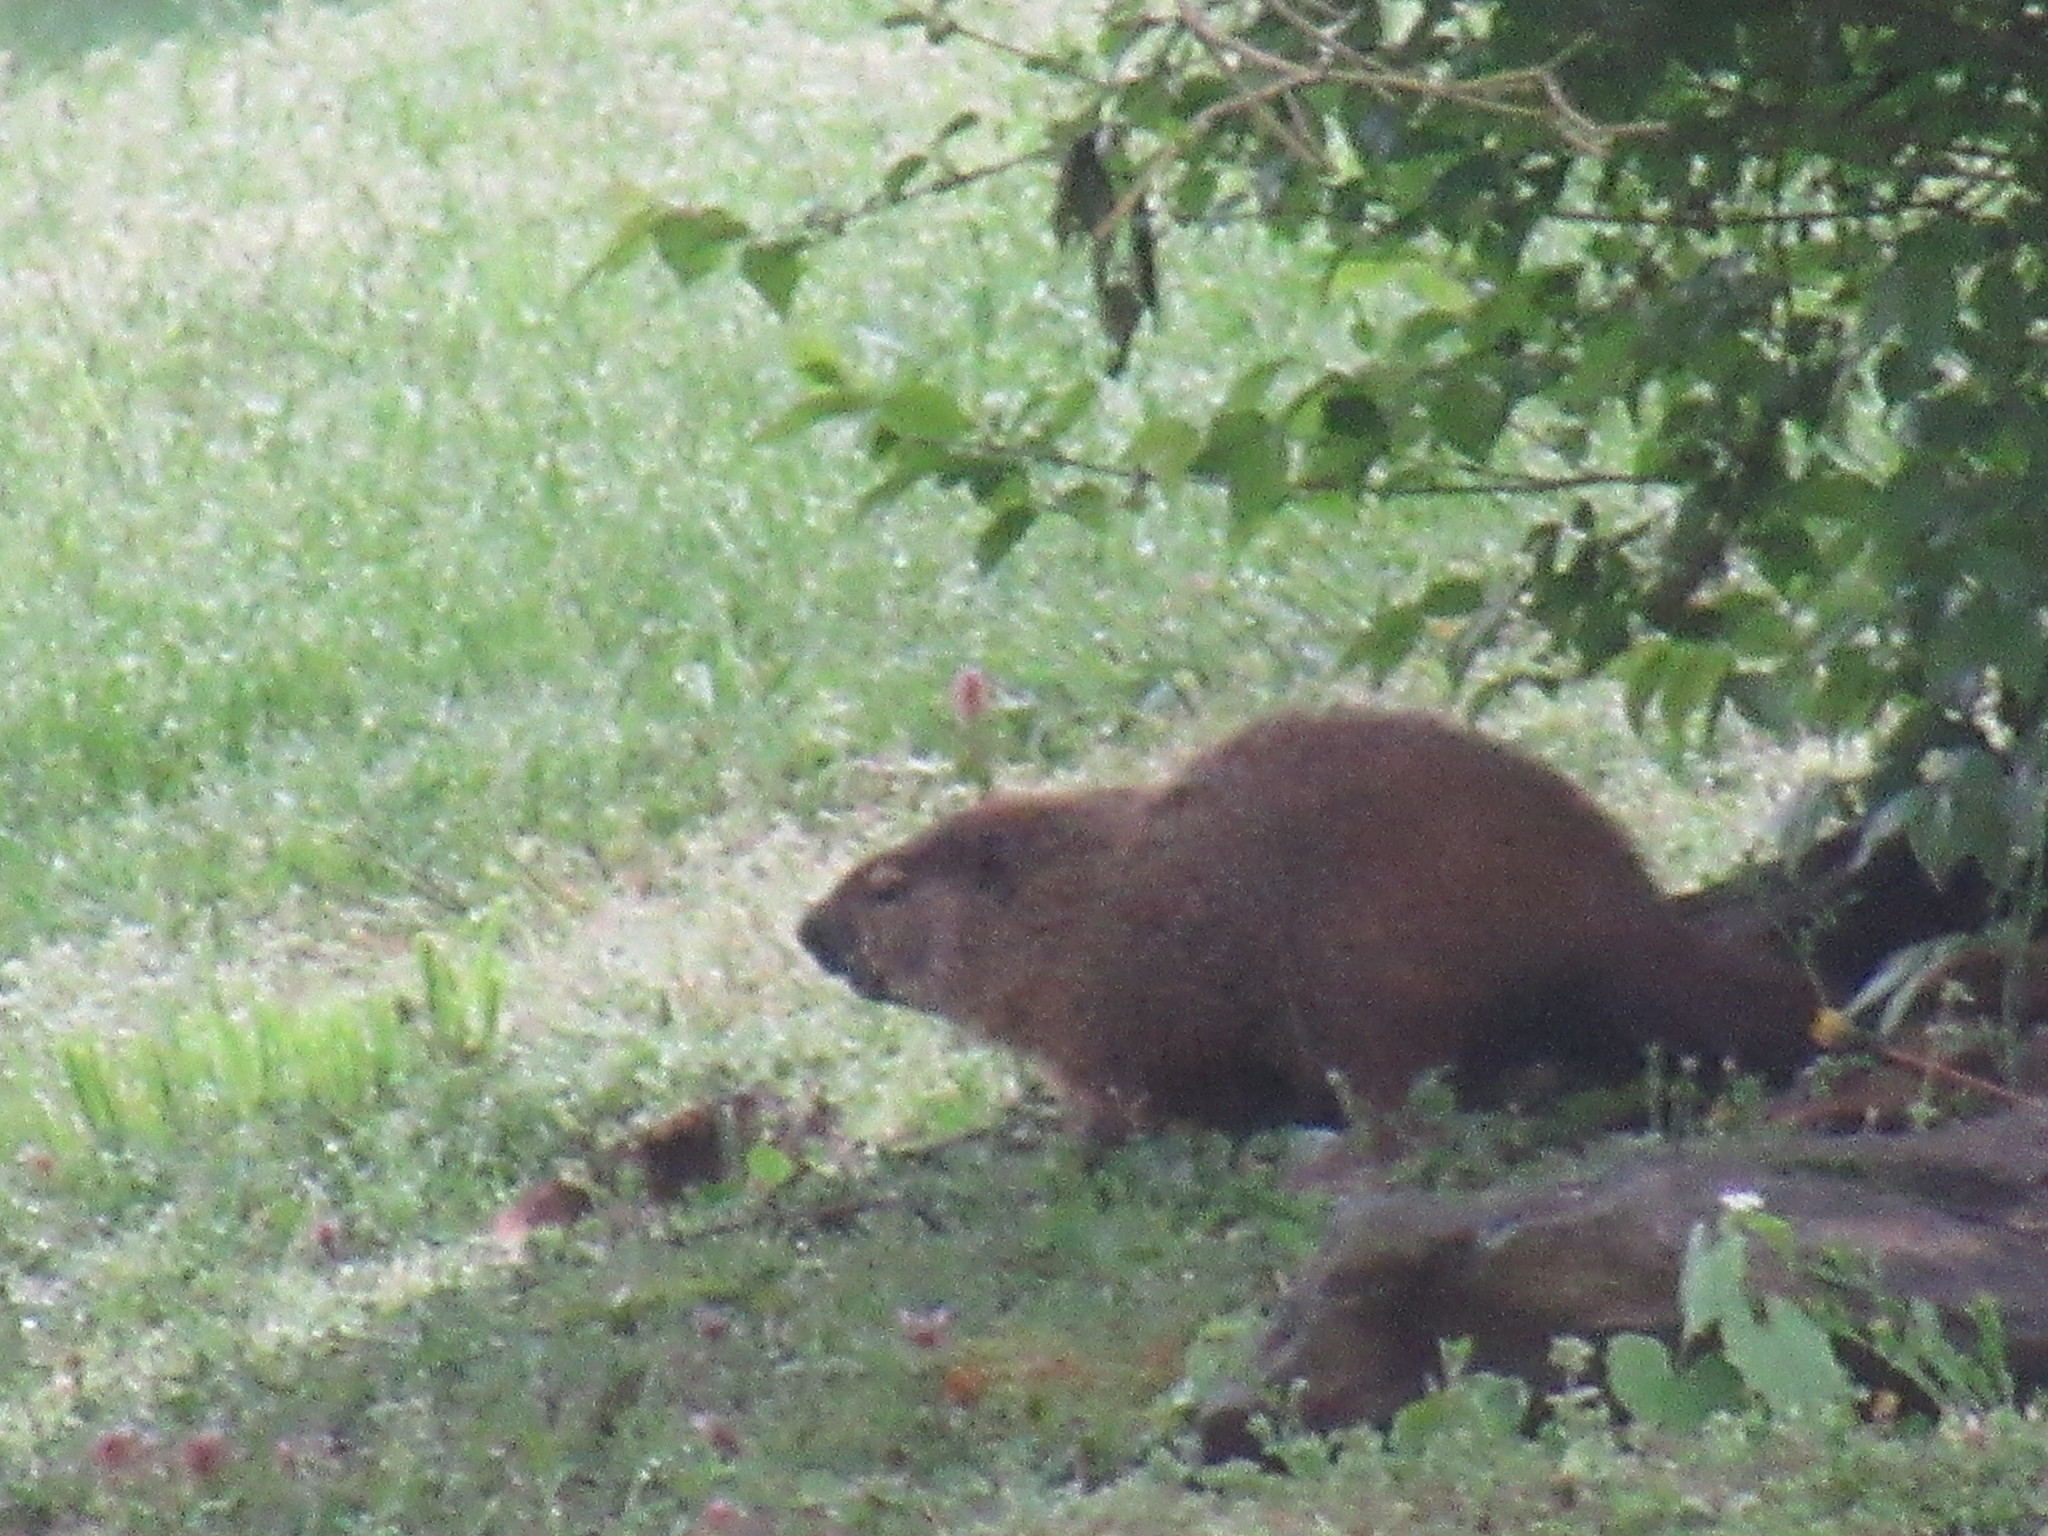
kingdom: Animalia
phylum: Chordata
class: Mammalia
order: Rodentia
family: Sciuridae
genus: Marmota
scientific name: Marmota monax
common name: Groundhog
